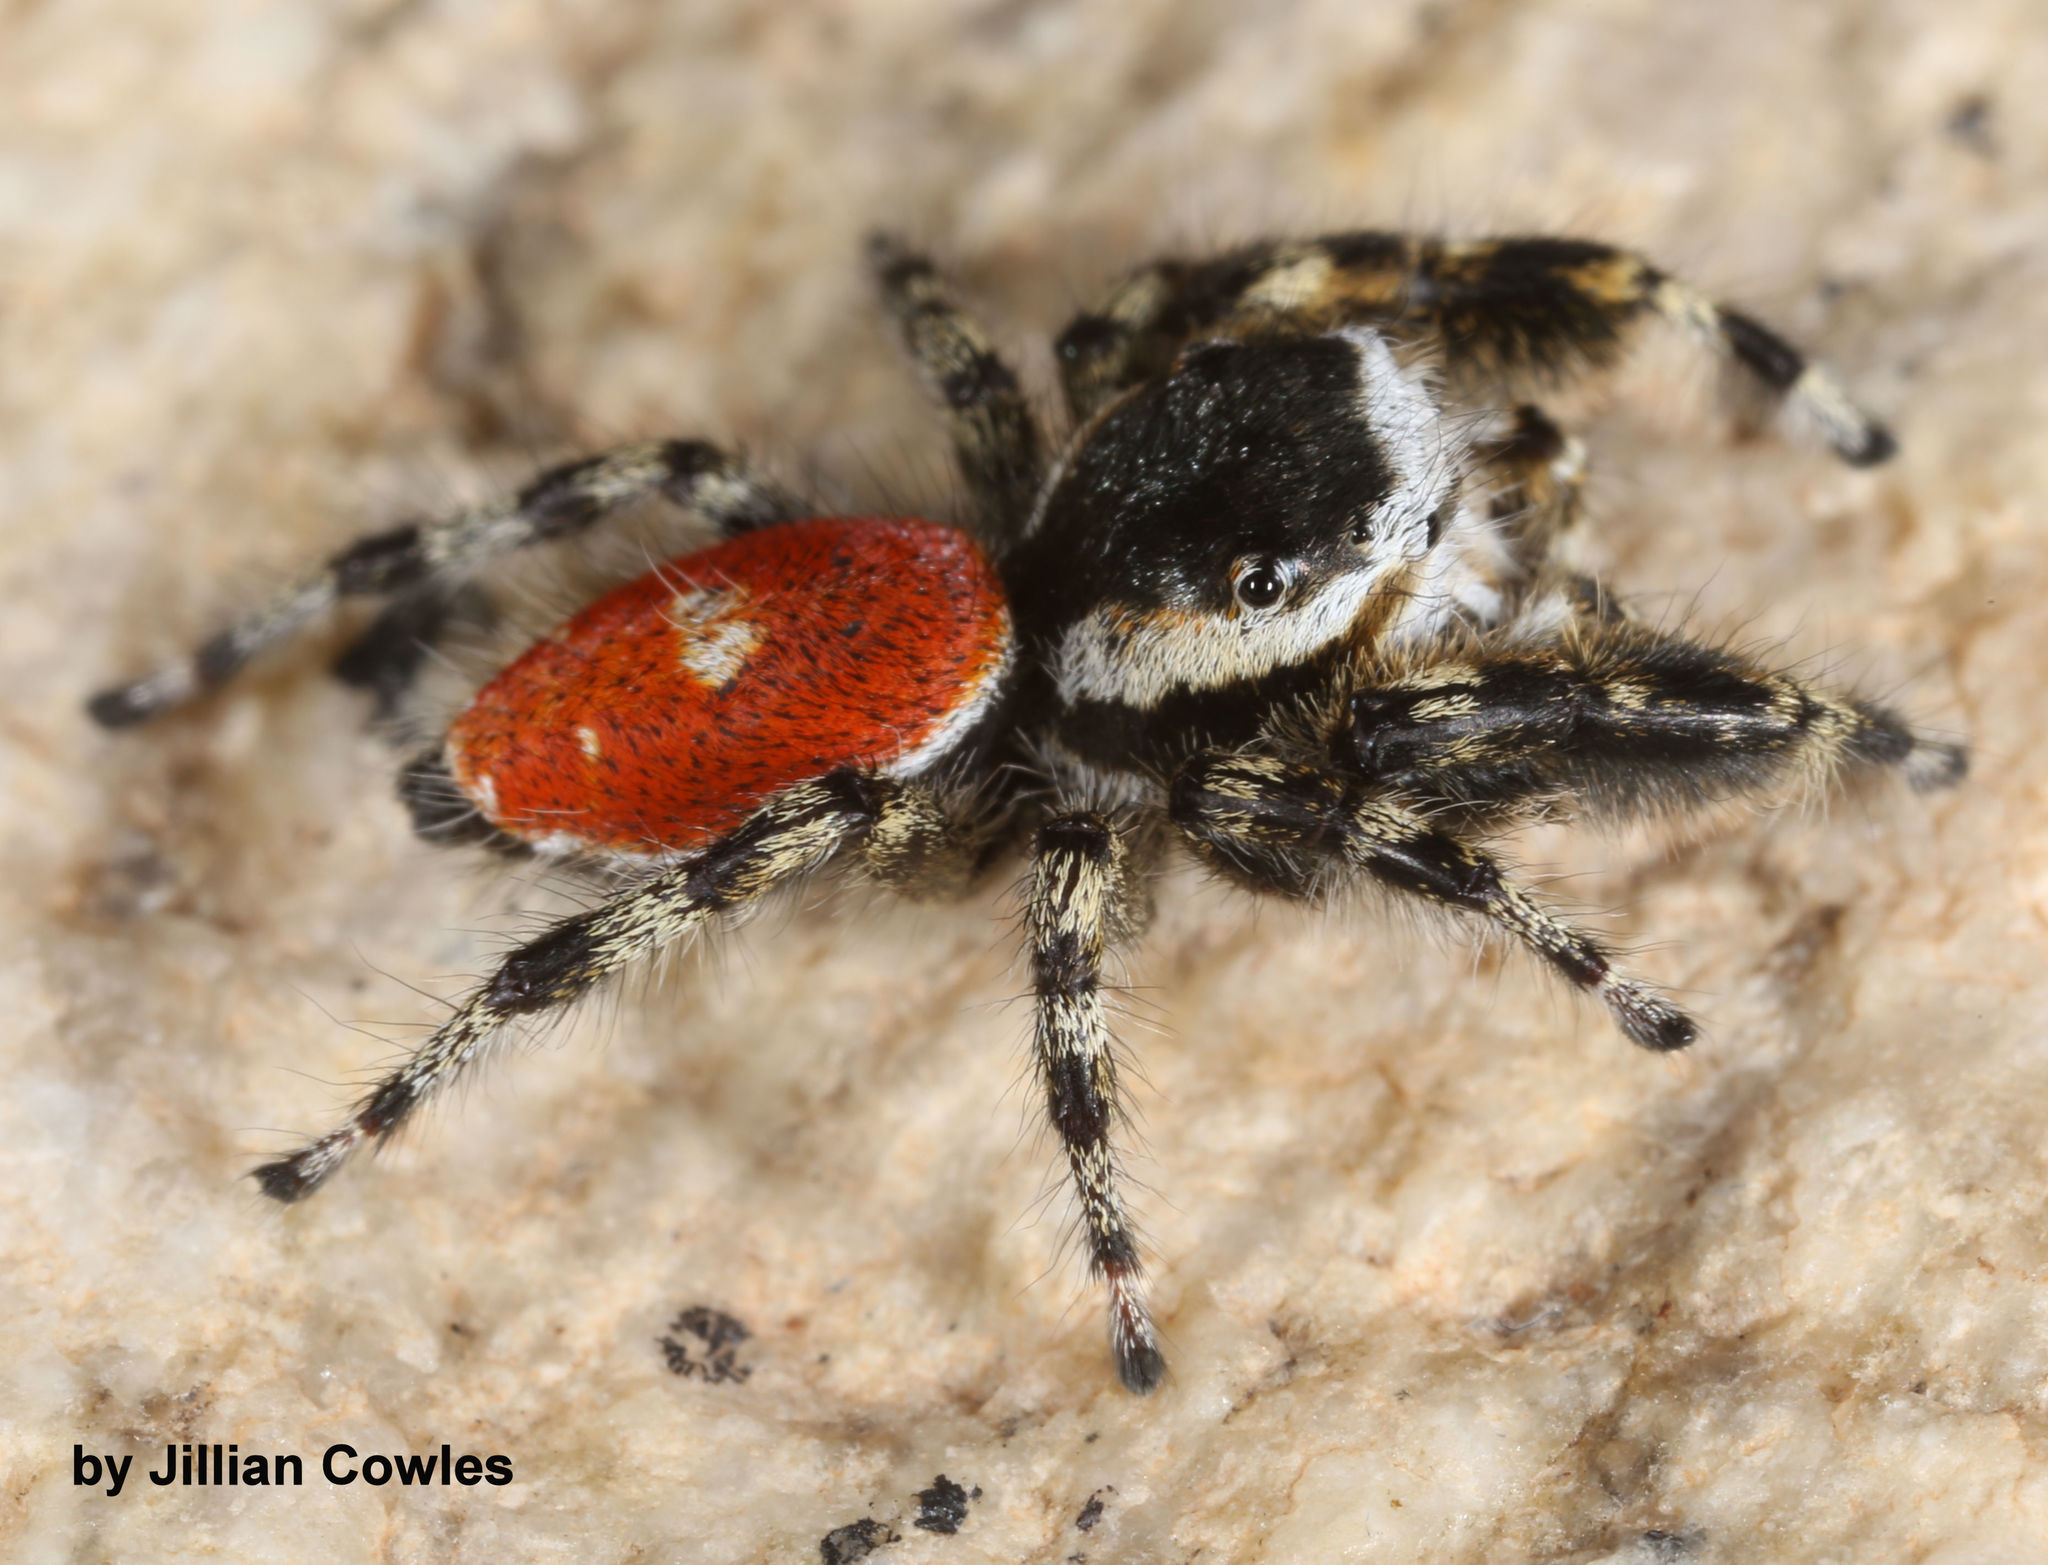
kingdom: Animalia
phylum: Arthropoda
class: Arachnida
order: Araneae
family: Salticidae
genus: Phidippus
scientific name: Phidippus tyrrelli
